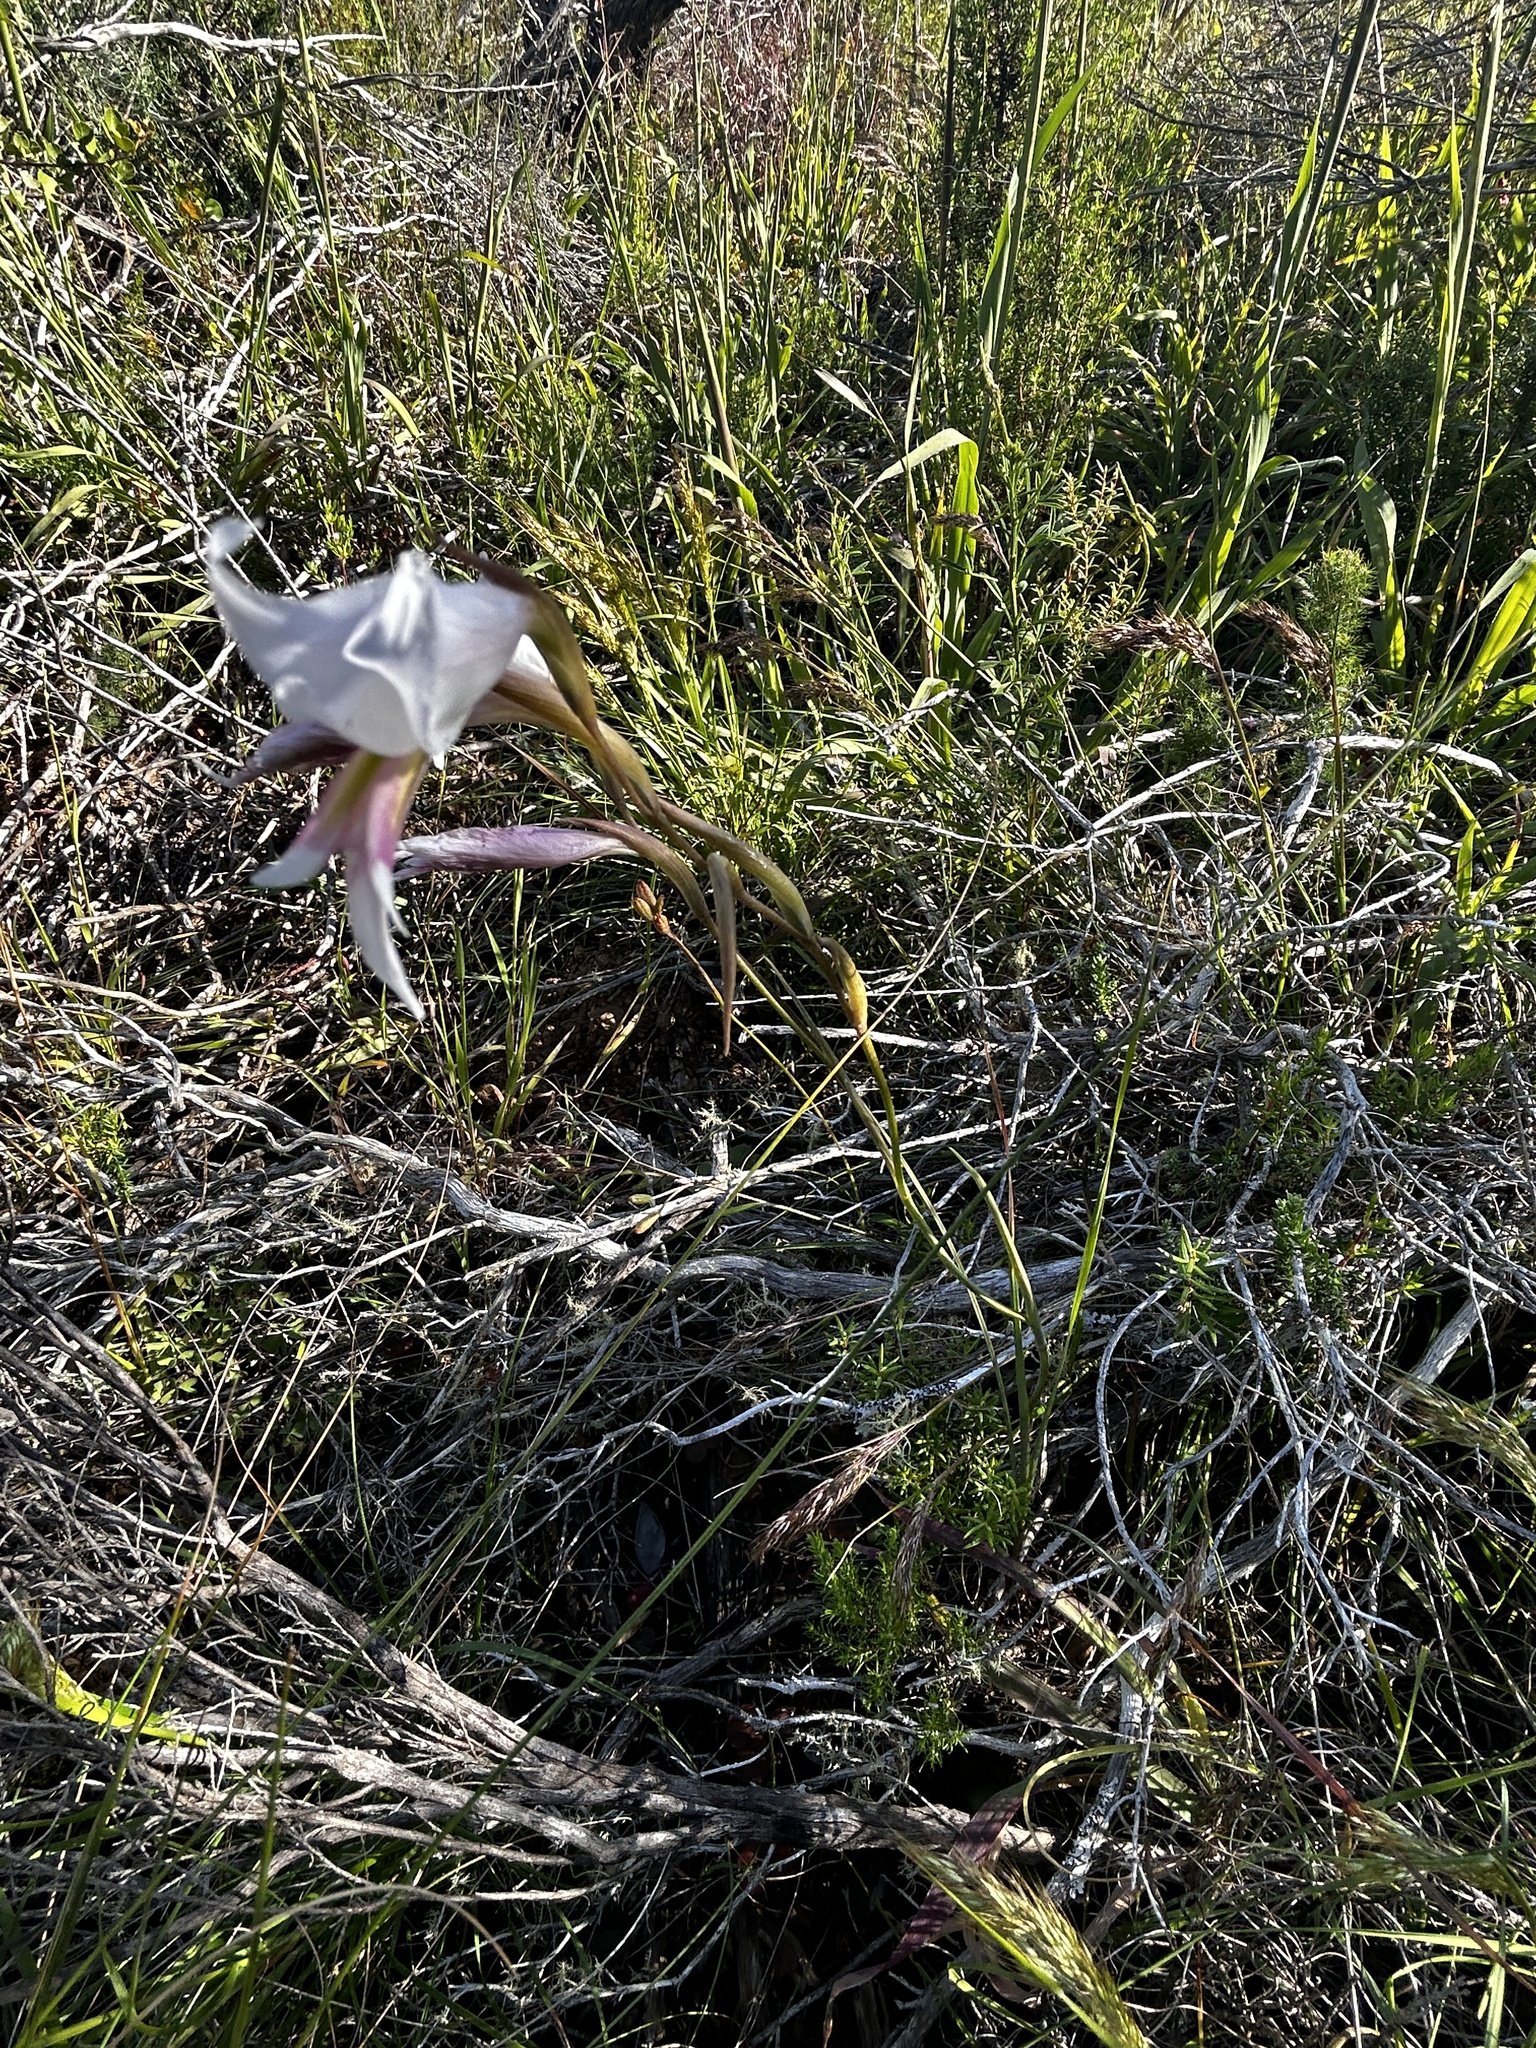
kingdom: Plantae
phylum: Tracheophyta
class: Liliopsida
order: Asparagales
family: Iridaceae
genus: Gladiolus
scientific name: Gladiolus involutus
